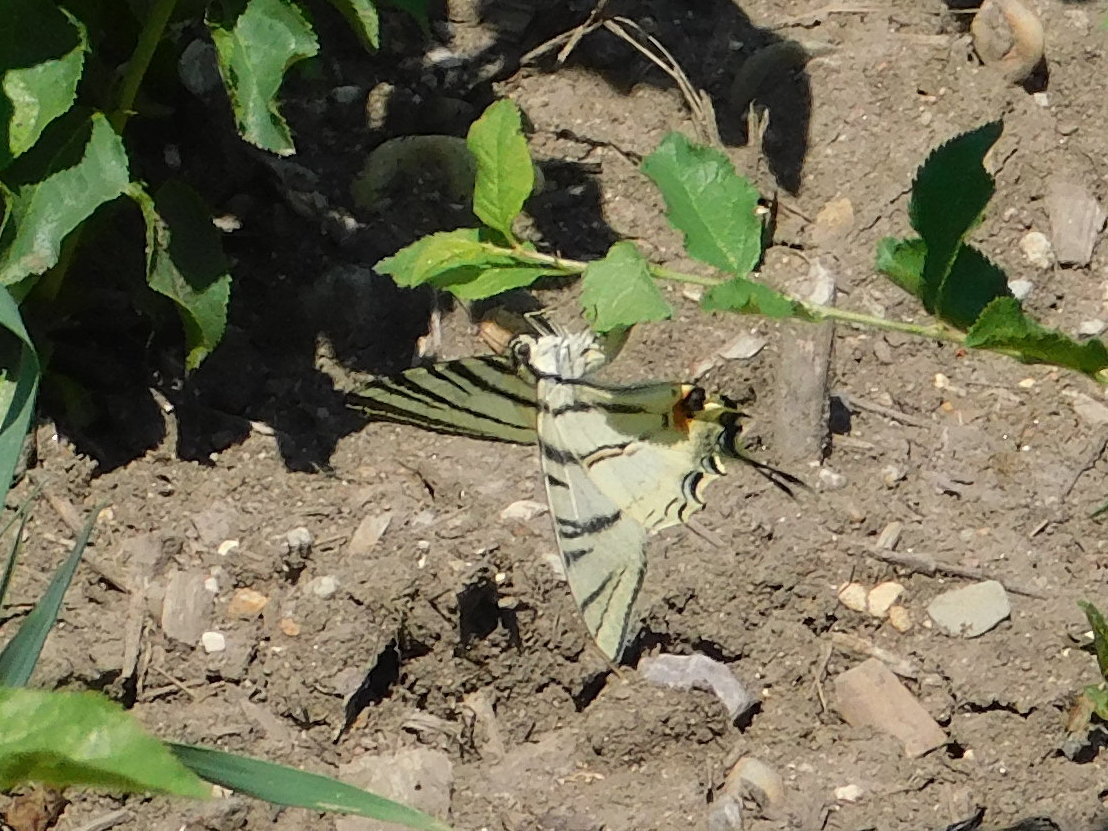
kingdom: Animalia
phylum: Arthropoda
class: Insecta
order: Lepidoptera
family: Papilionidae
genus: Iphiclides
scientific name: Iphiclides podalirius
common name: Scarce swallowtail
